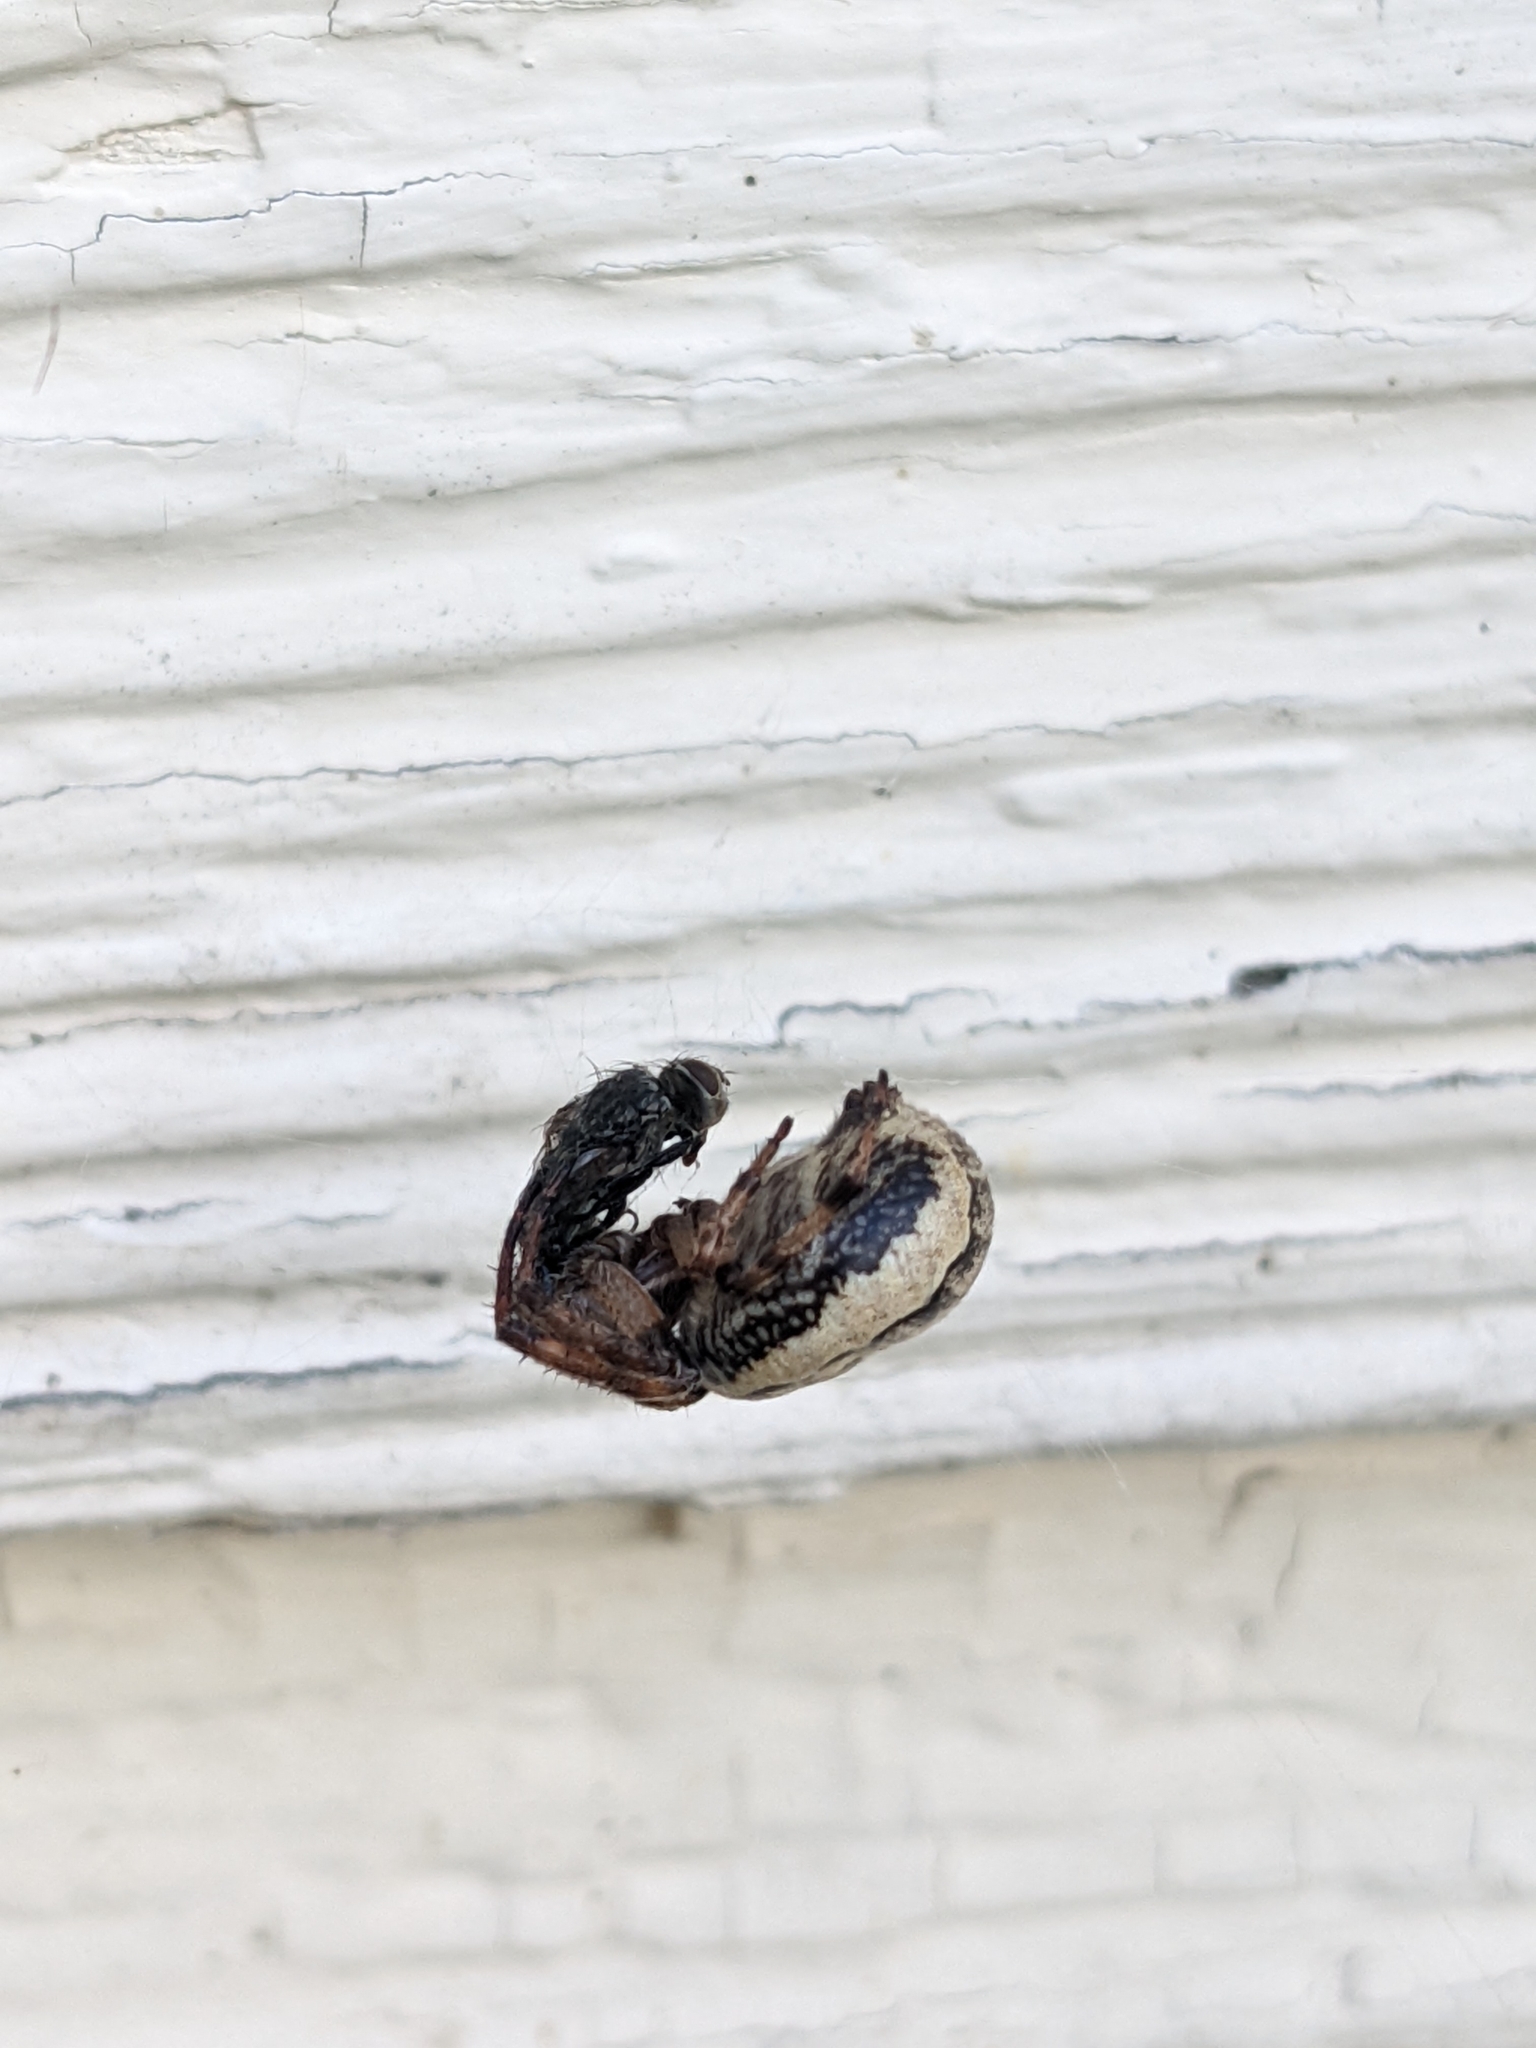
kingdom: Animalia
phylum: Arthropoda
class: Arachnida
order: Araneae
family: Araneidae
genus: Larinioides
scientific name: Larinioides cornutus
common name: Furrow orbweaver
